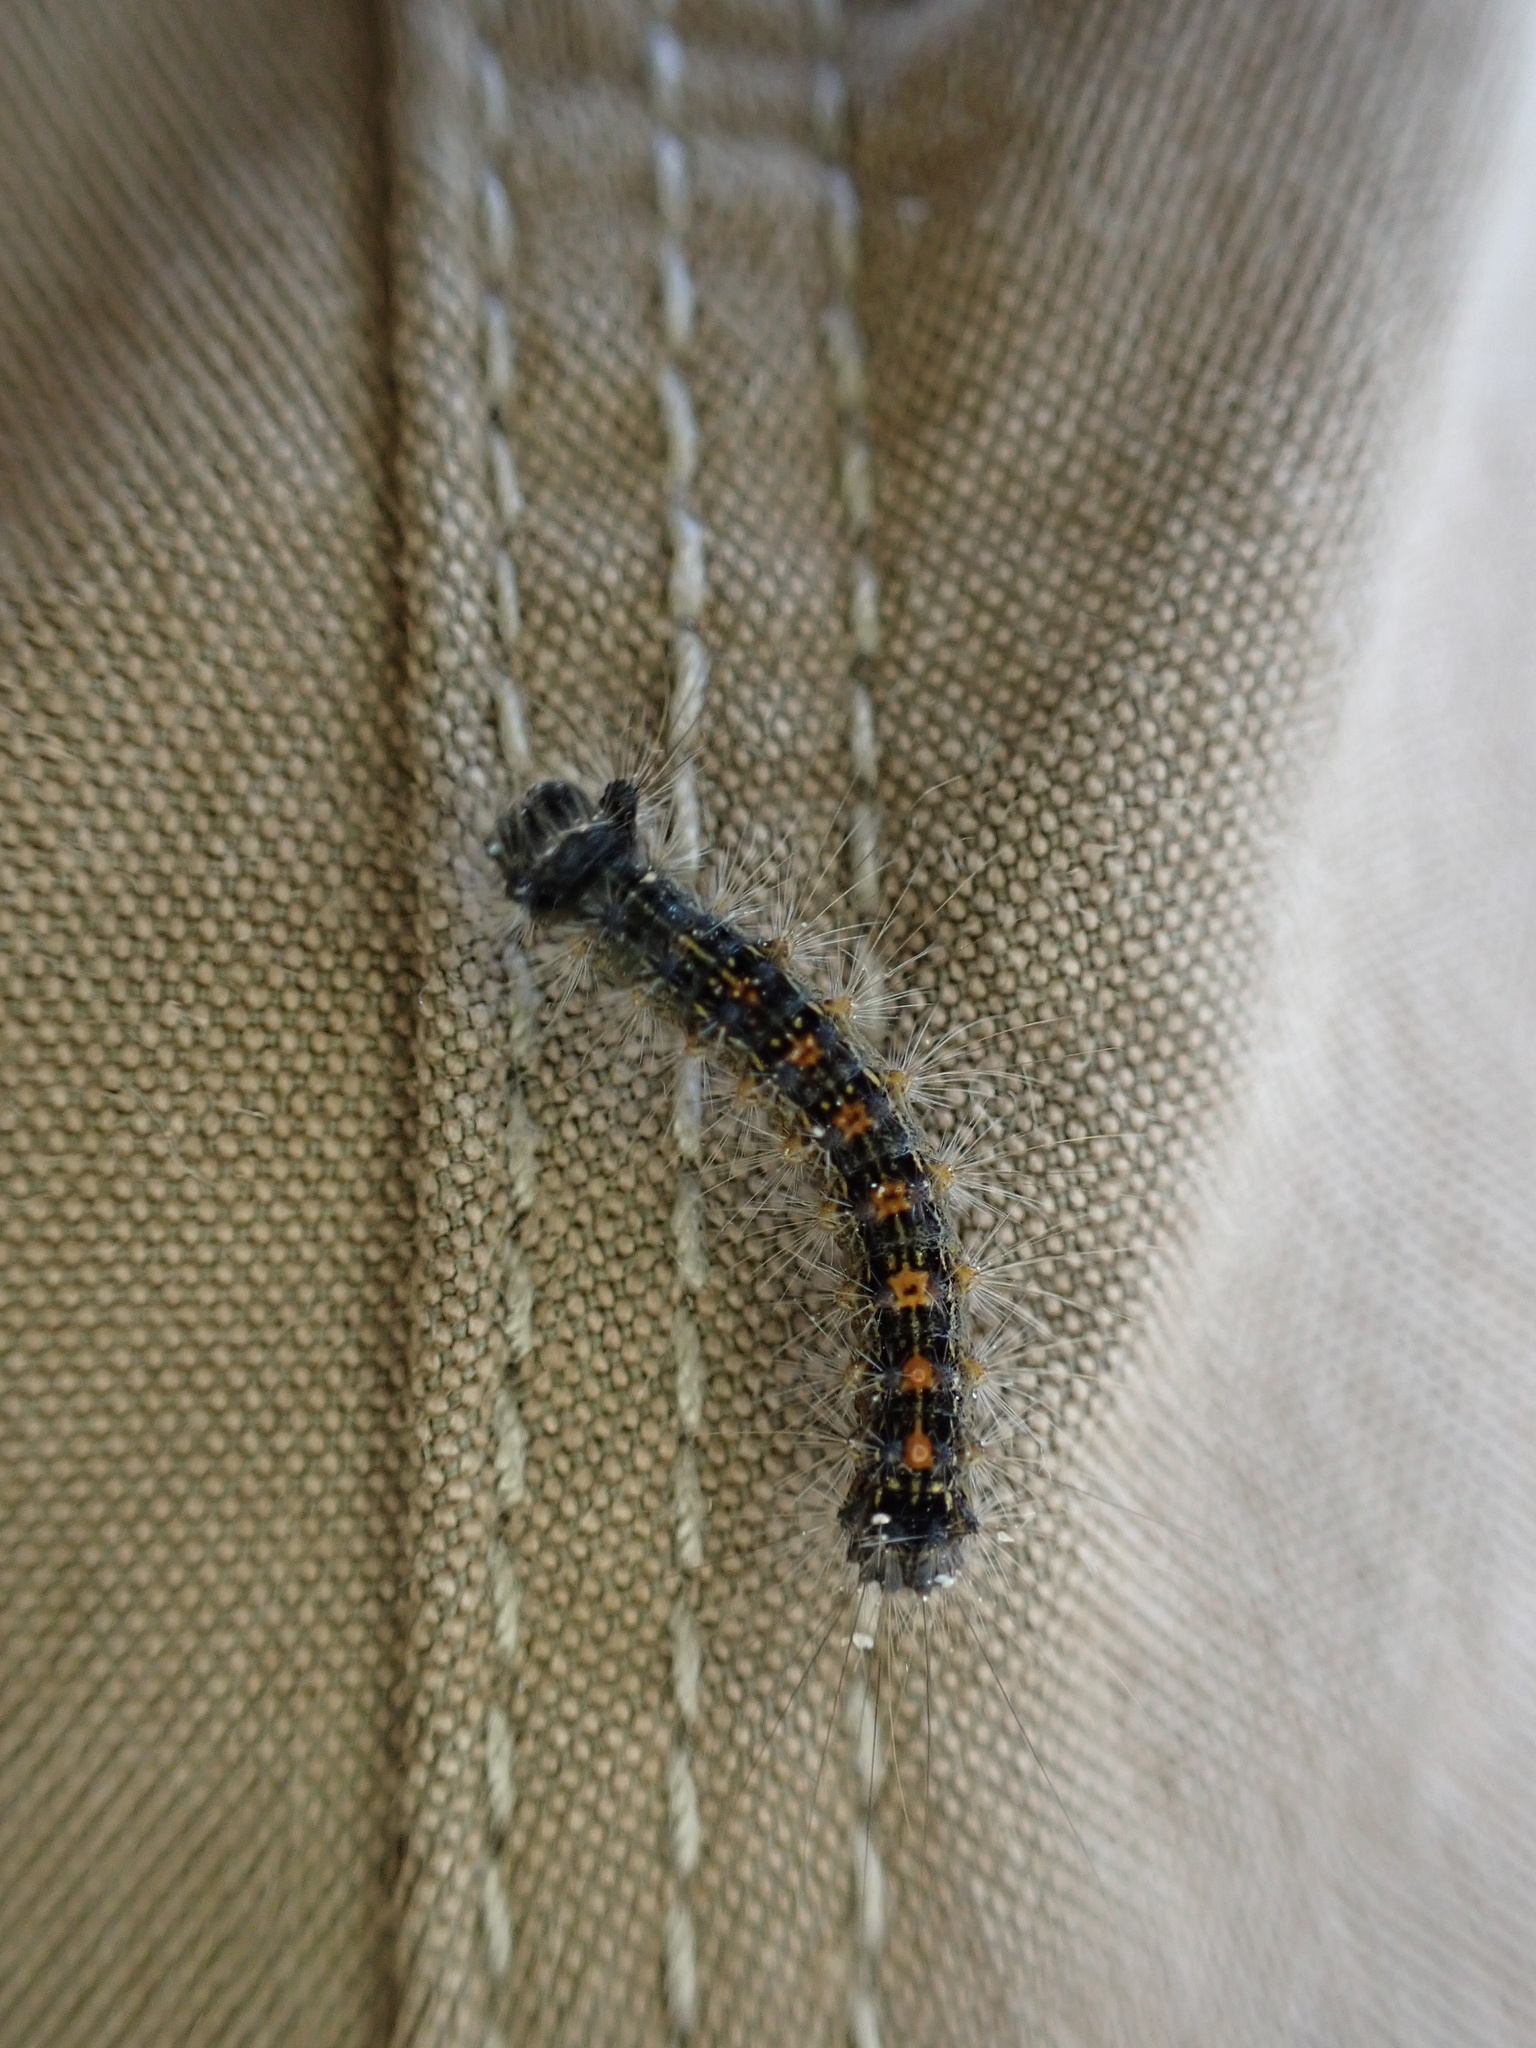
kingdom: Animalia
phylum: Arthropoda
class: Insecta
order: Lepidoptera
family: Erebidae
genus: Lymantria
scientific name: Lymantria dispar
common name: Gypsy moth
